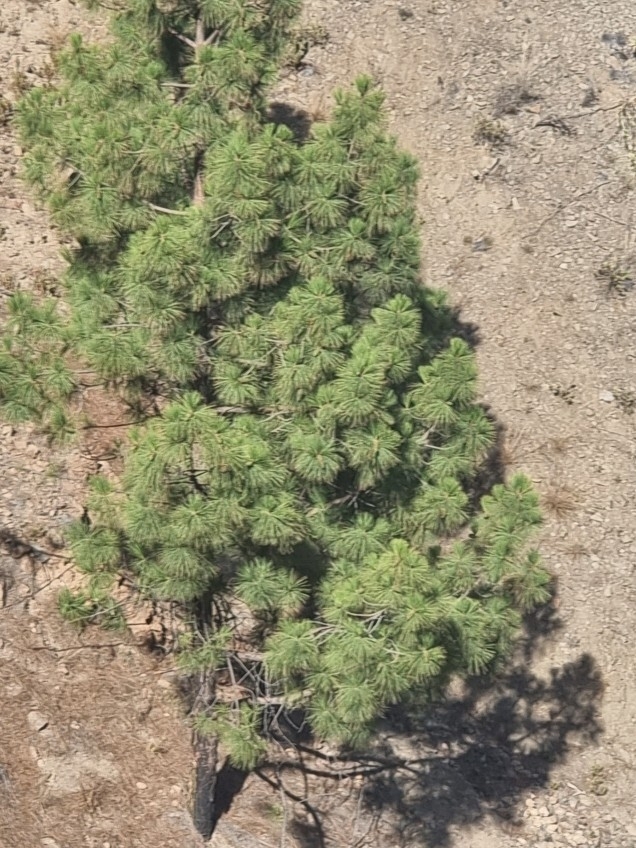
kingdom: Plantae
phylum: Tracheophyta
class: Pinopsida
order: Pinales
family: Pinaceae
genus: Pinus
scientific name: Pinus canariensis
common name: Canary islands pine
